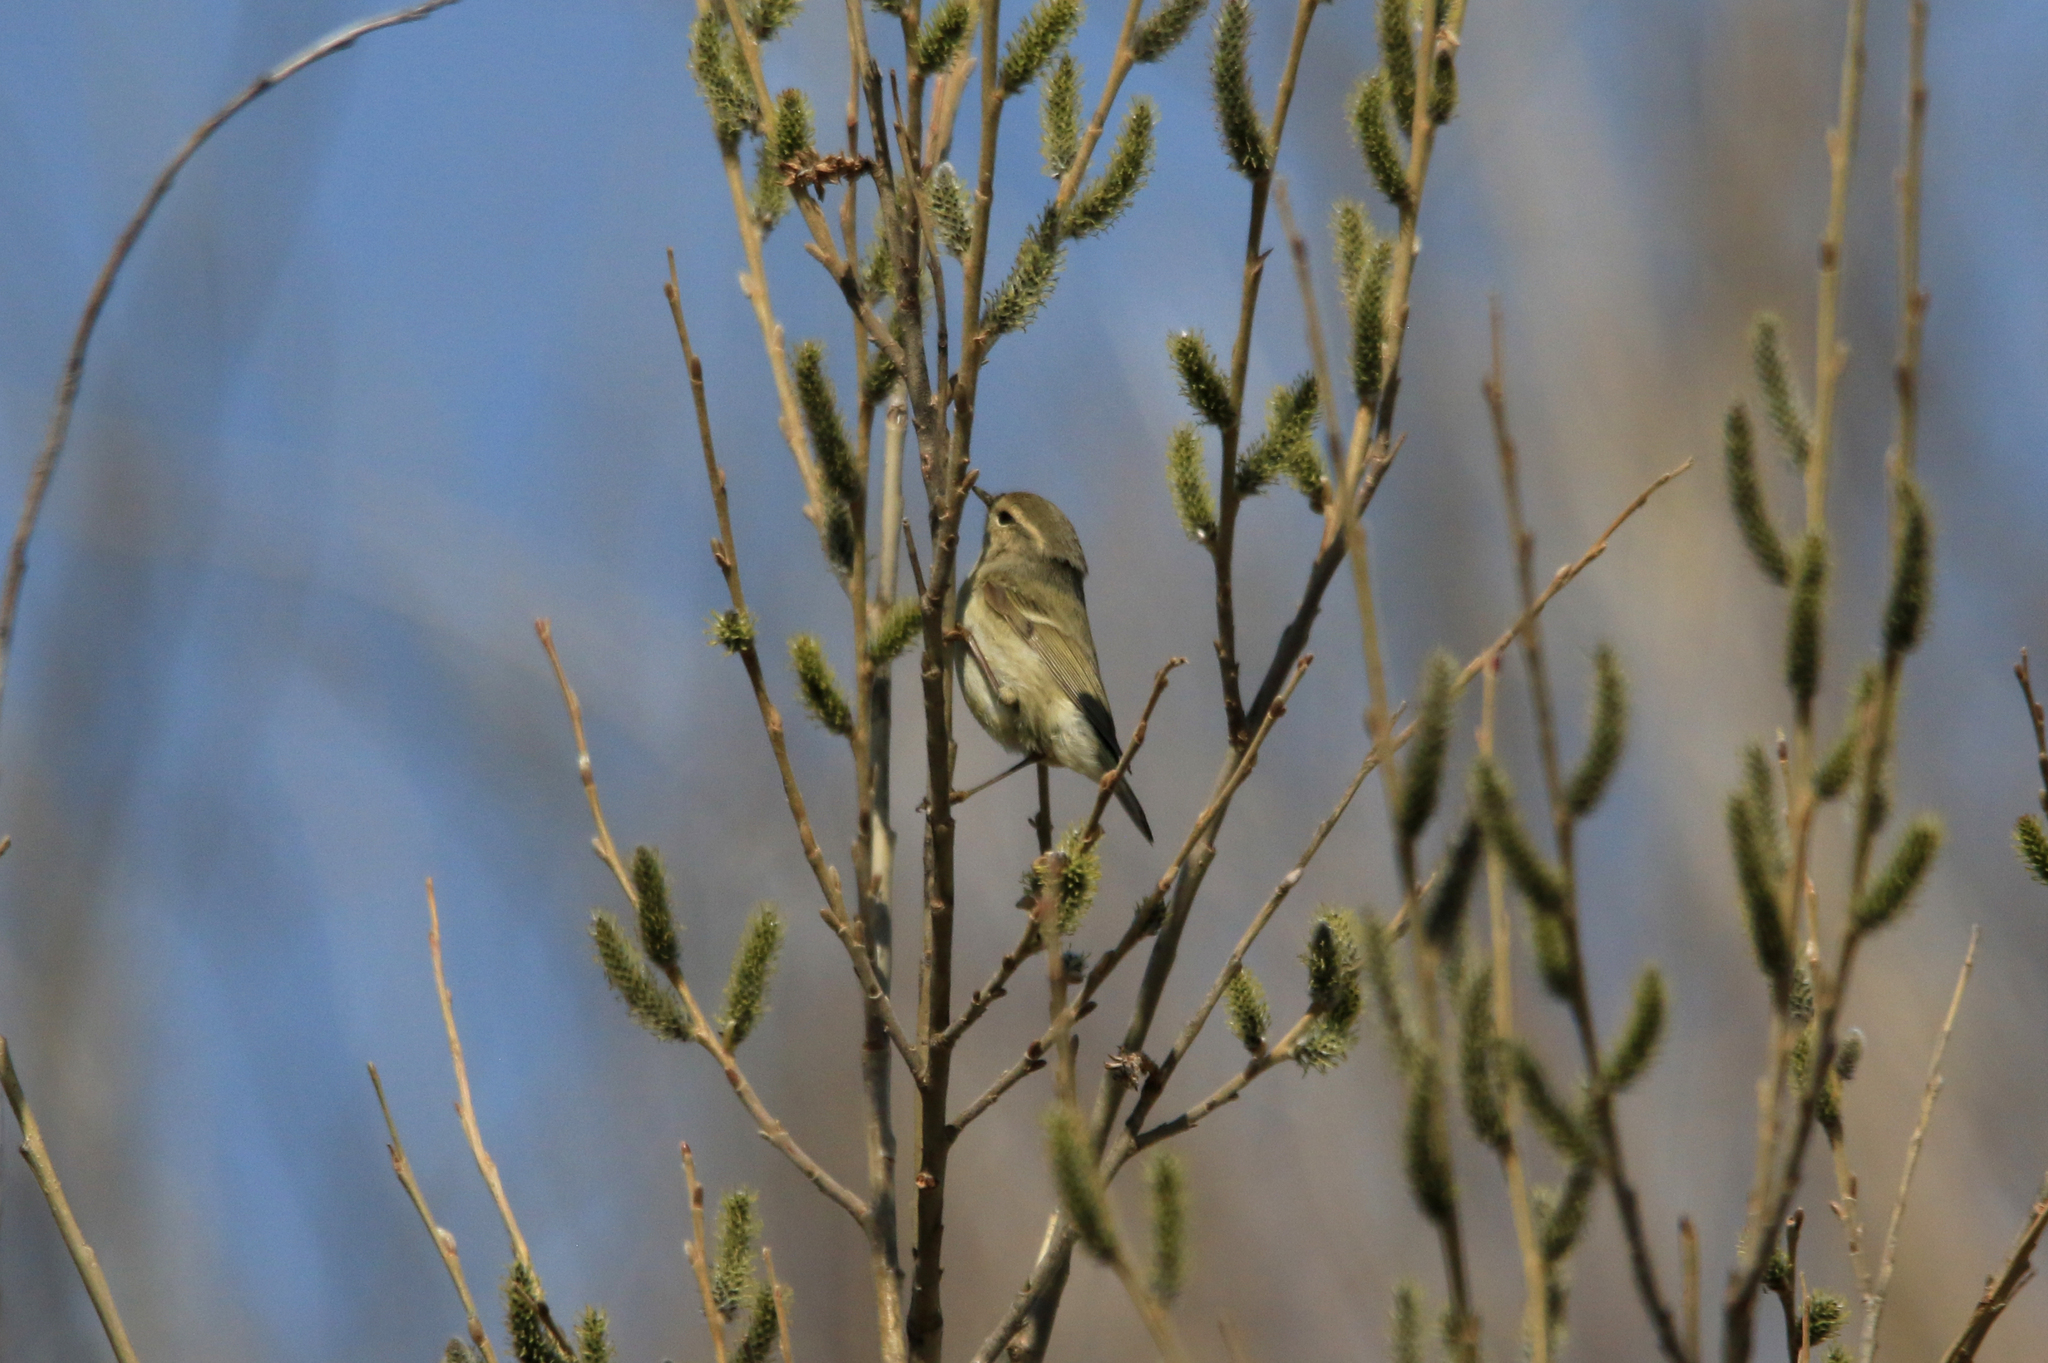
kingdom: Animalia
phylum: Chordata
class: Aves
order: Passeriformes
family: Phylloscopidae
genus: Phylloscopus
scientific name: Phylloscopus humei
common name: Hume's leaf warbler
